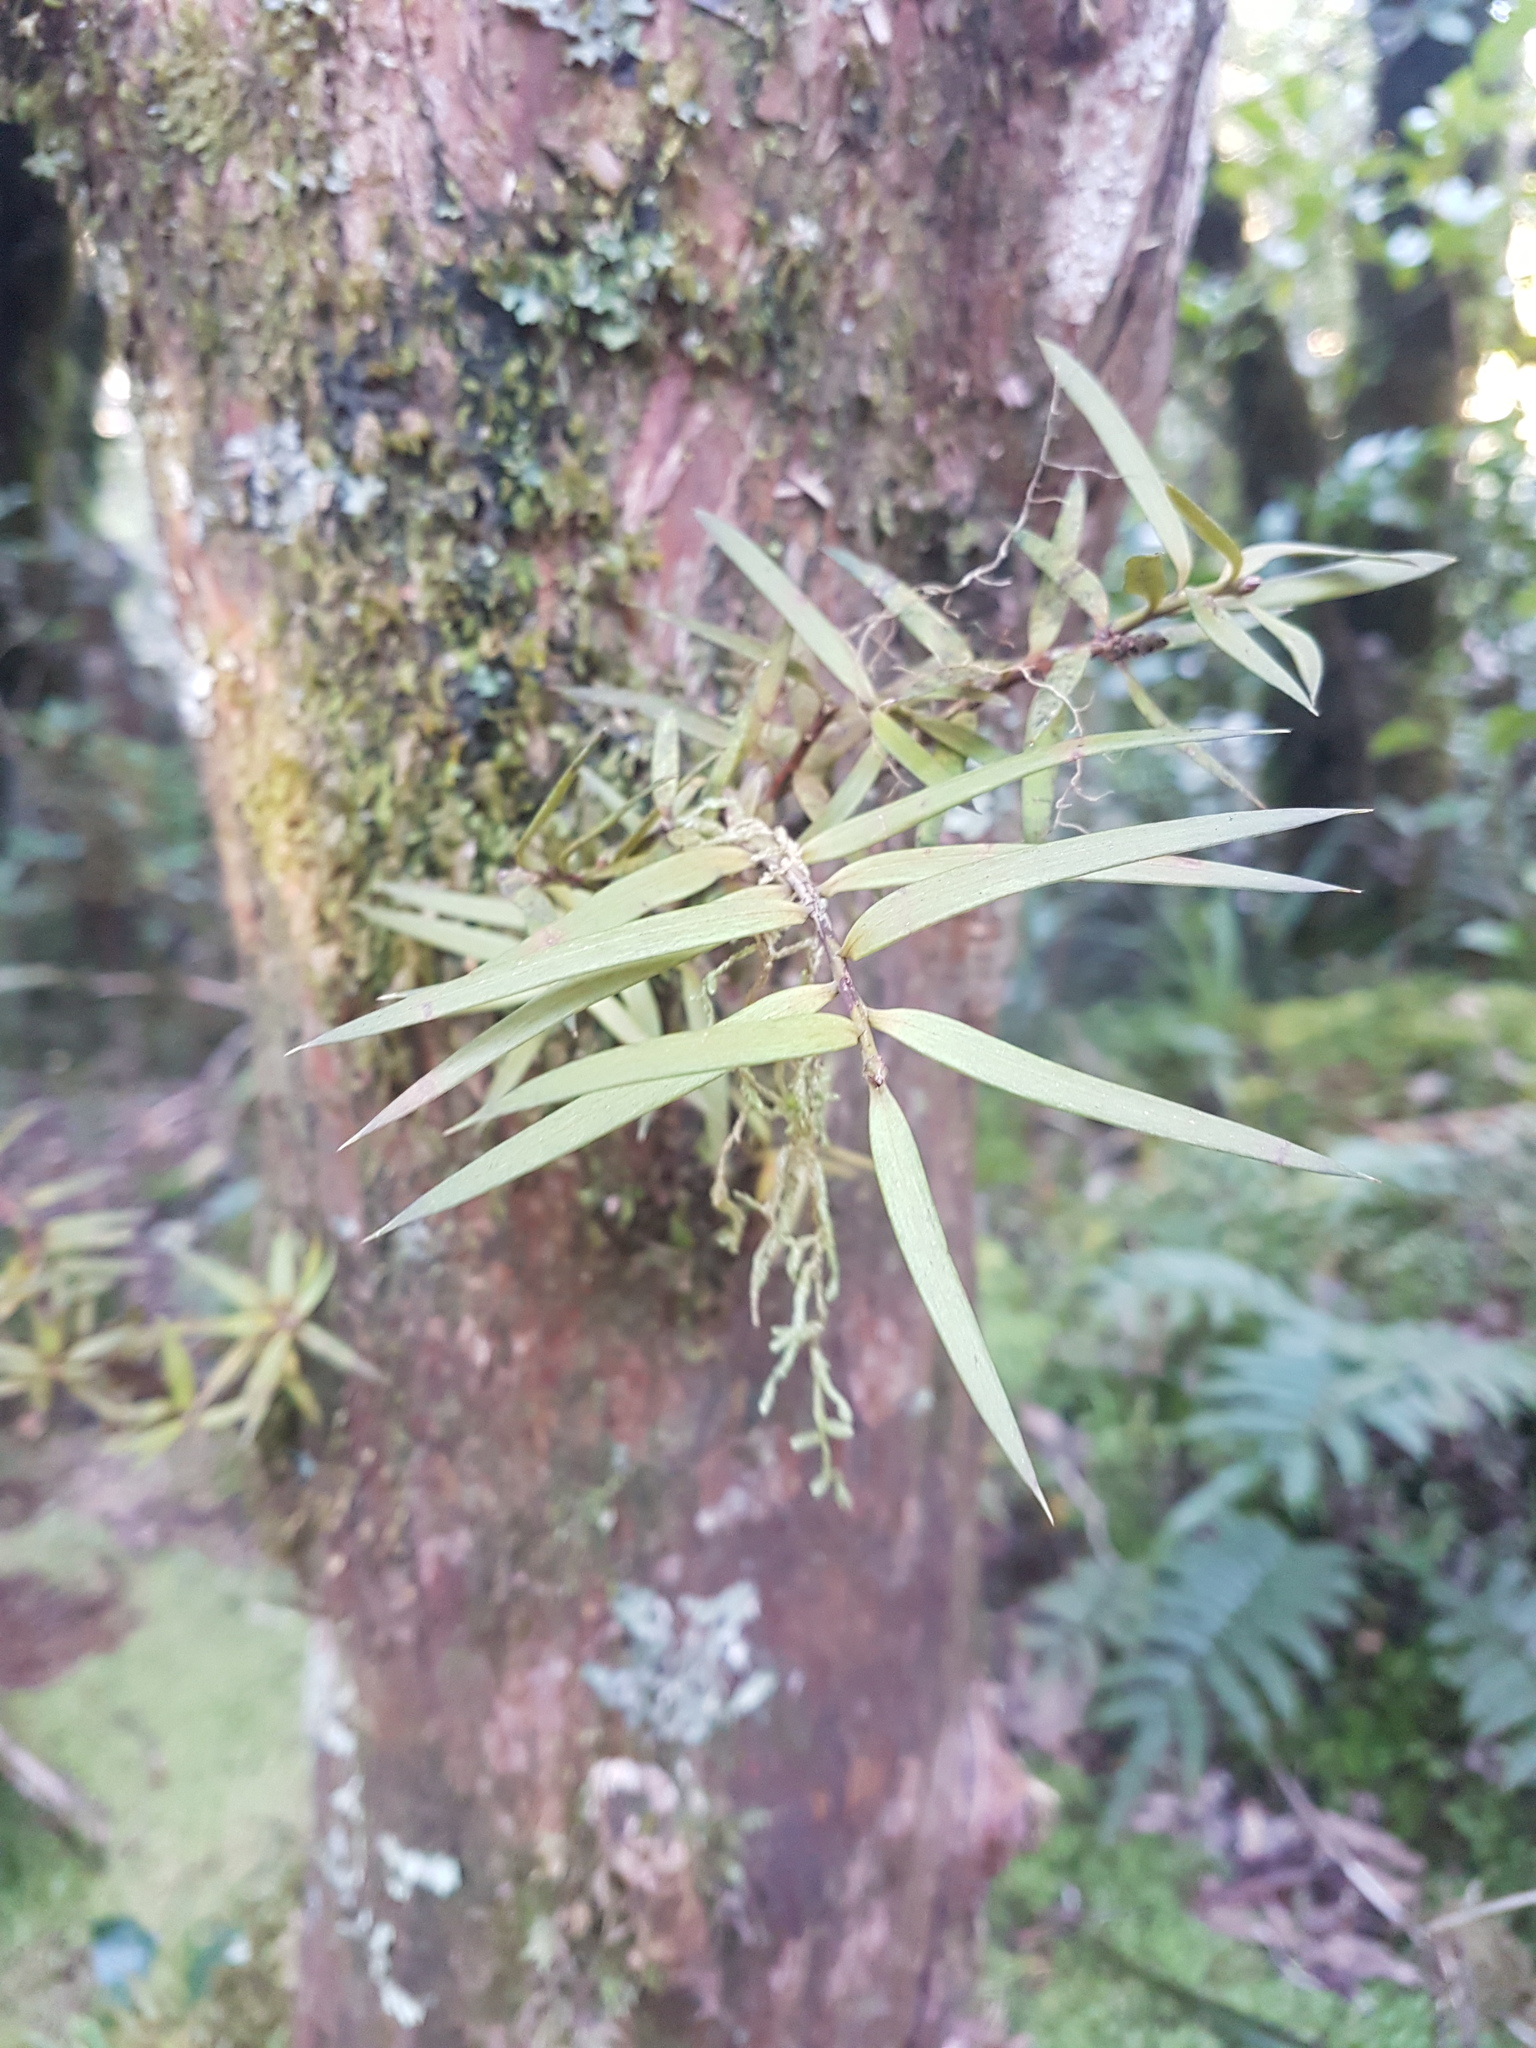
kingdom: Plantae
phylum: Tracheophyta
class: Pinopsida
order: Pinales
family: Podocarpaceae
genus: Podocarpus
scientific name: Podocarpus laetus
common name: Hall's totara
